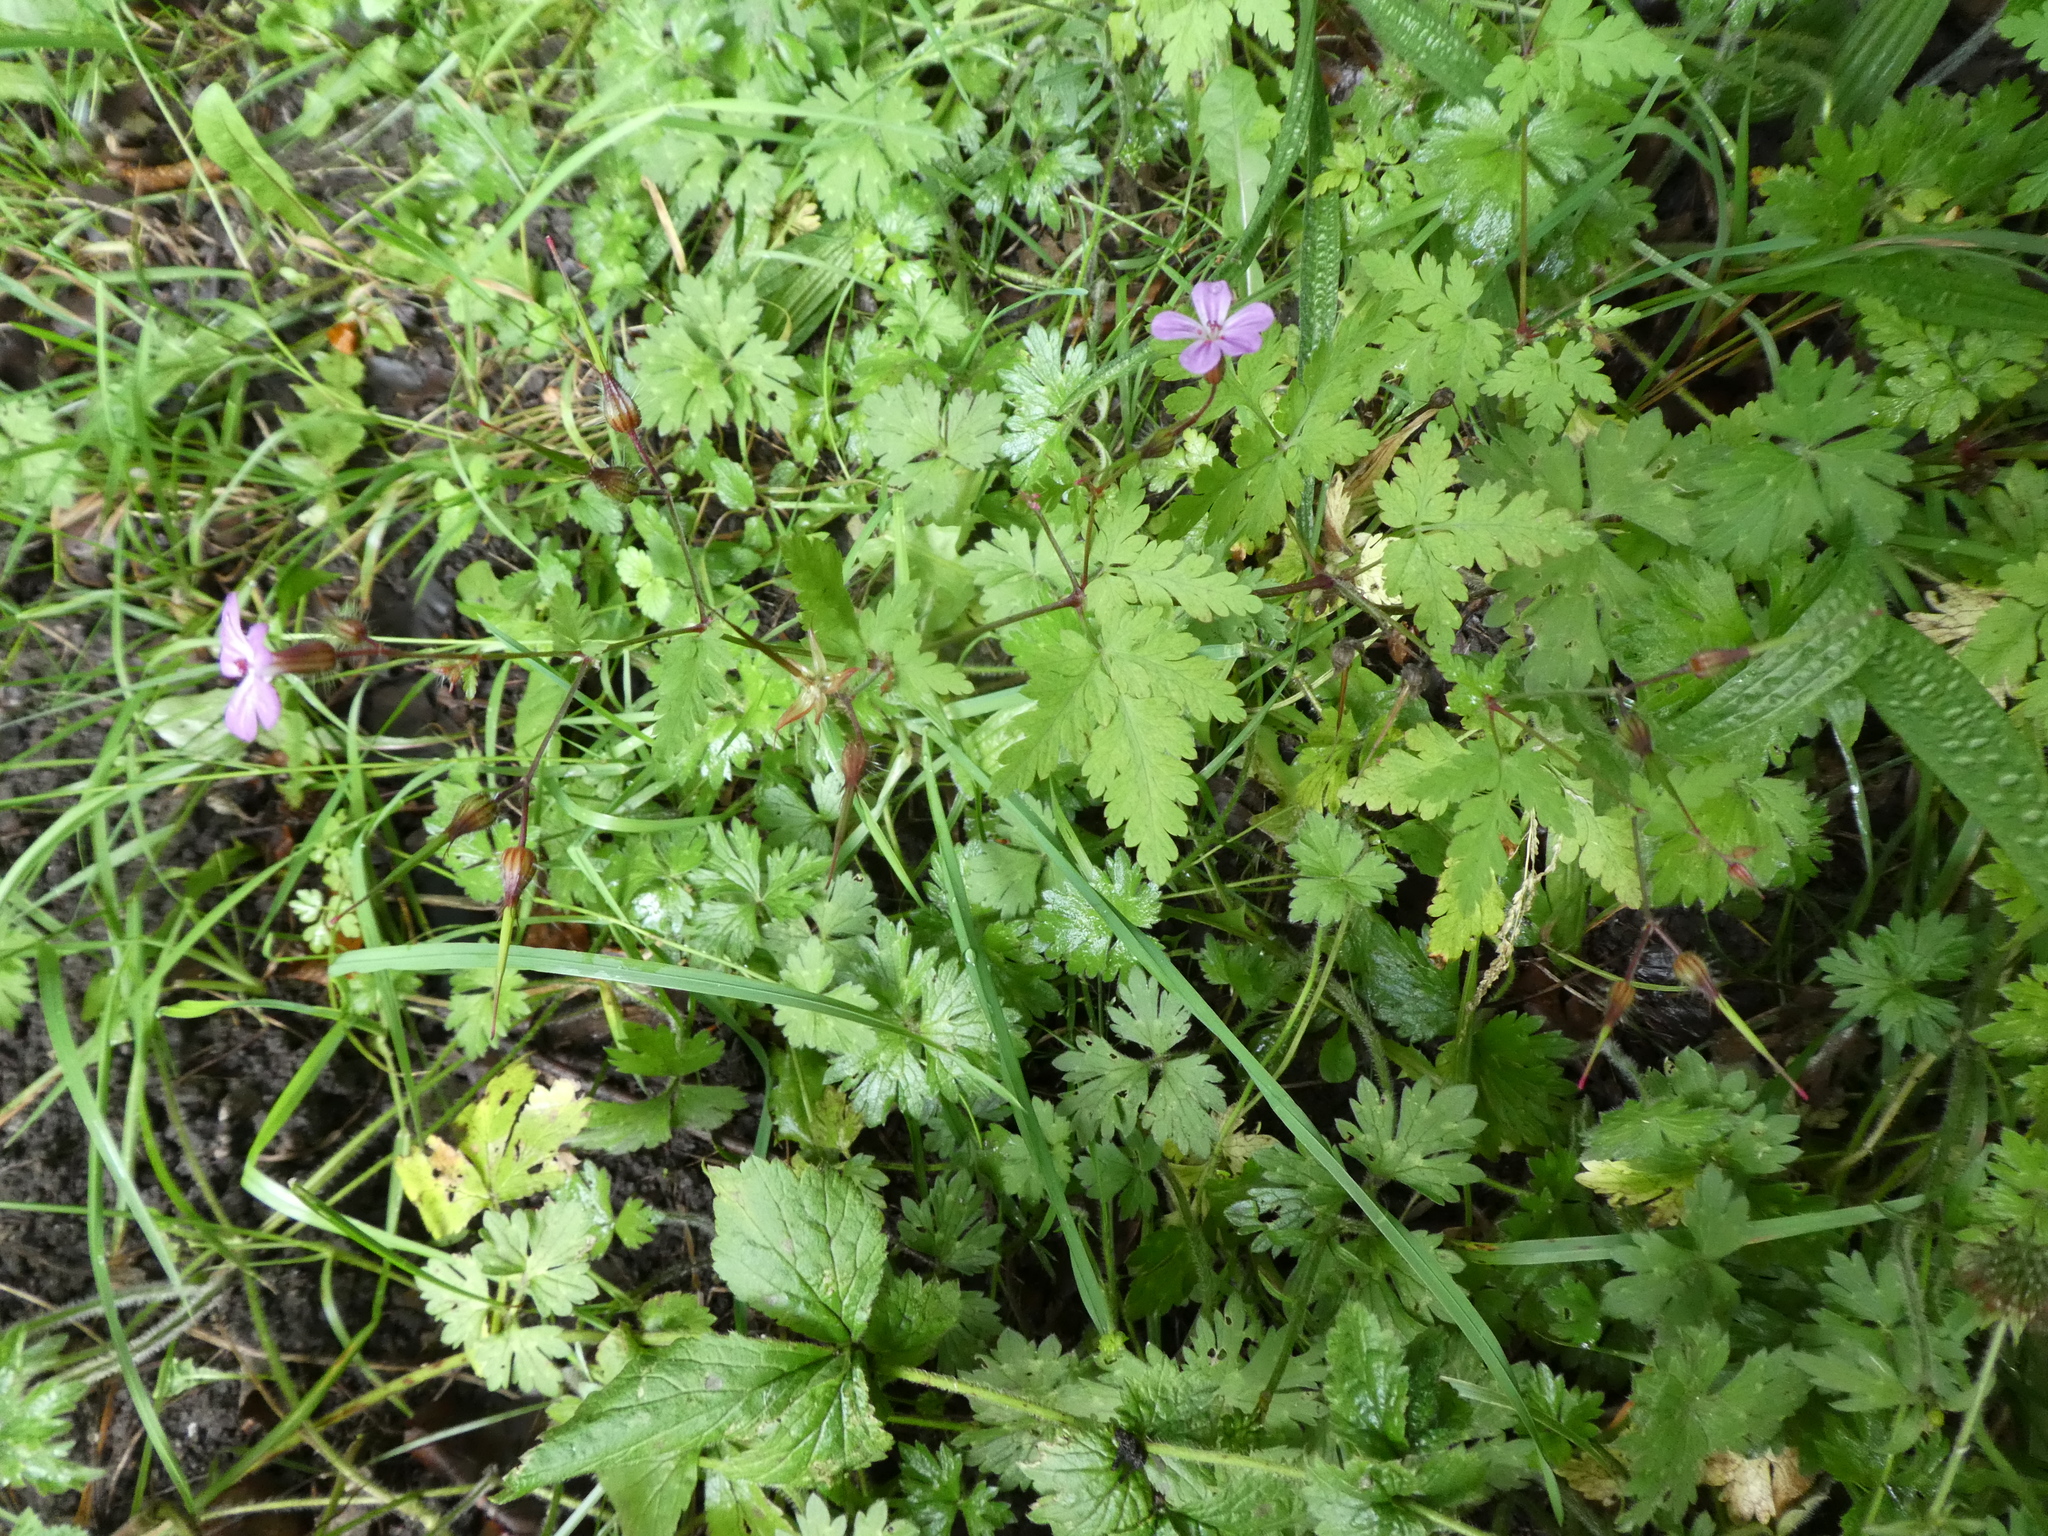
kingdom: Plantae
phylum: Tracheophyta
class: Magnoliopsida
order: Geraniales
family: Geraniaceae
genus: Geranium
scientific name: Geranium robertianum
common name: Herb-robert
